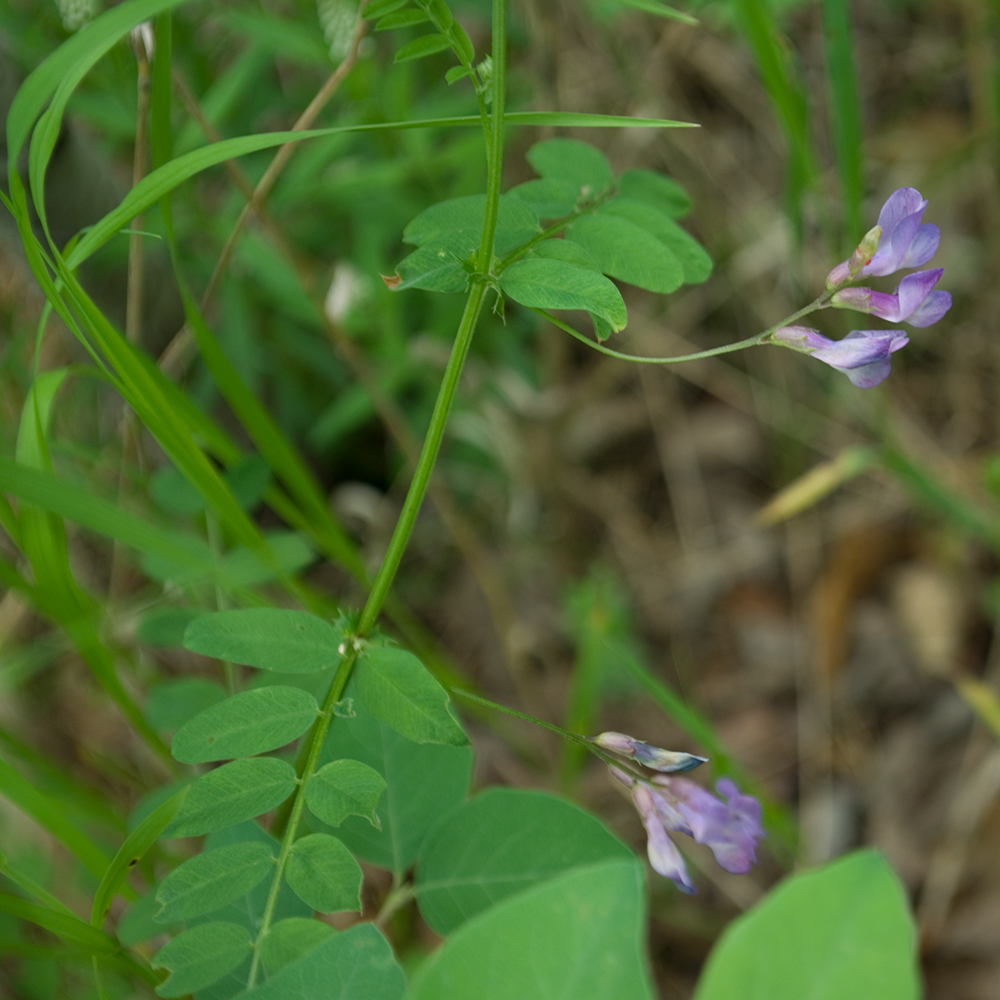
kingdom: Plantae
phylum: Tracheophyta
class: Magnoliopsida
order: Fabales
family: Fabaceae
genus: Vicia
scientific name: Vicia americana
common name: American vetch
